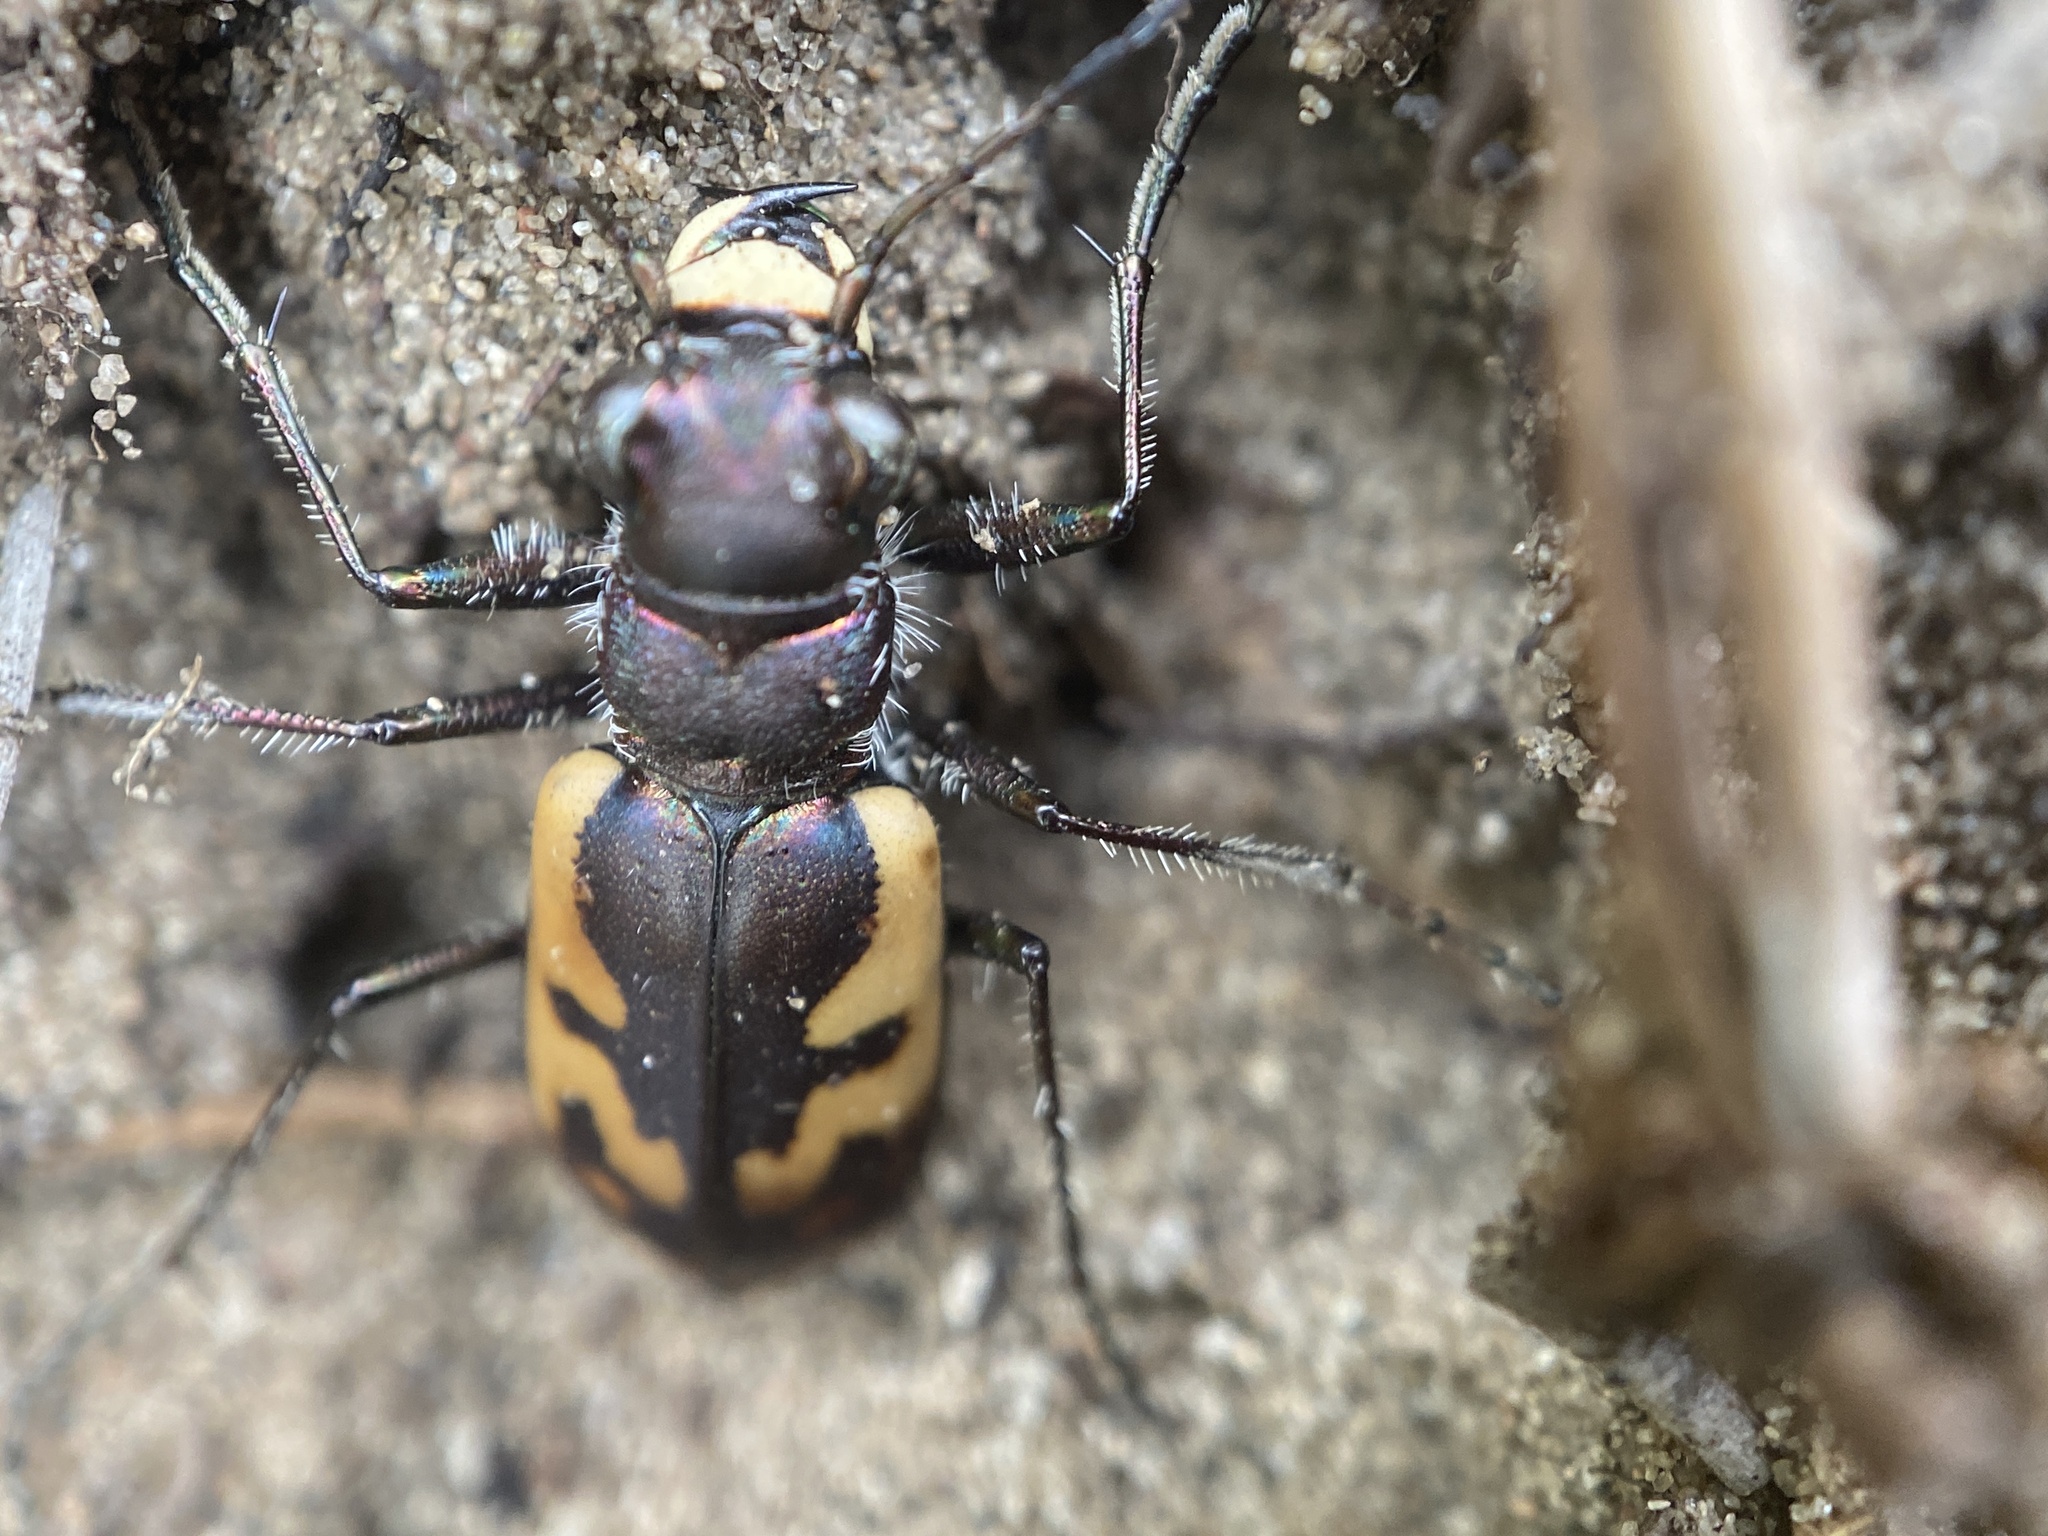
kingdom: Animalia
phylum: Arthropoda
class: Insecta
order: Coleoptera
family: Carabidae
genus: Cicindela
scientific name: Cicindela formosa
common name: Big sand tiger beetle
